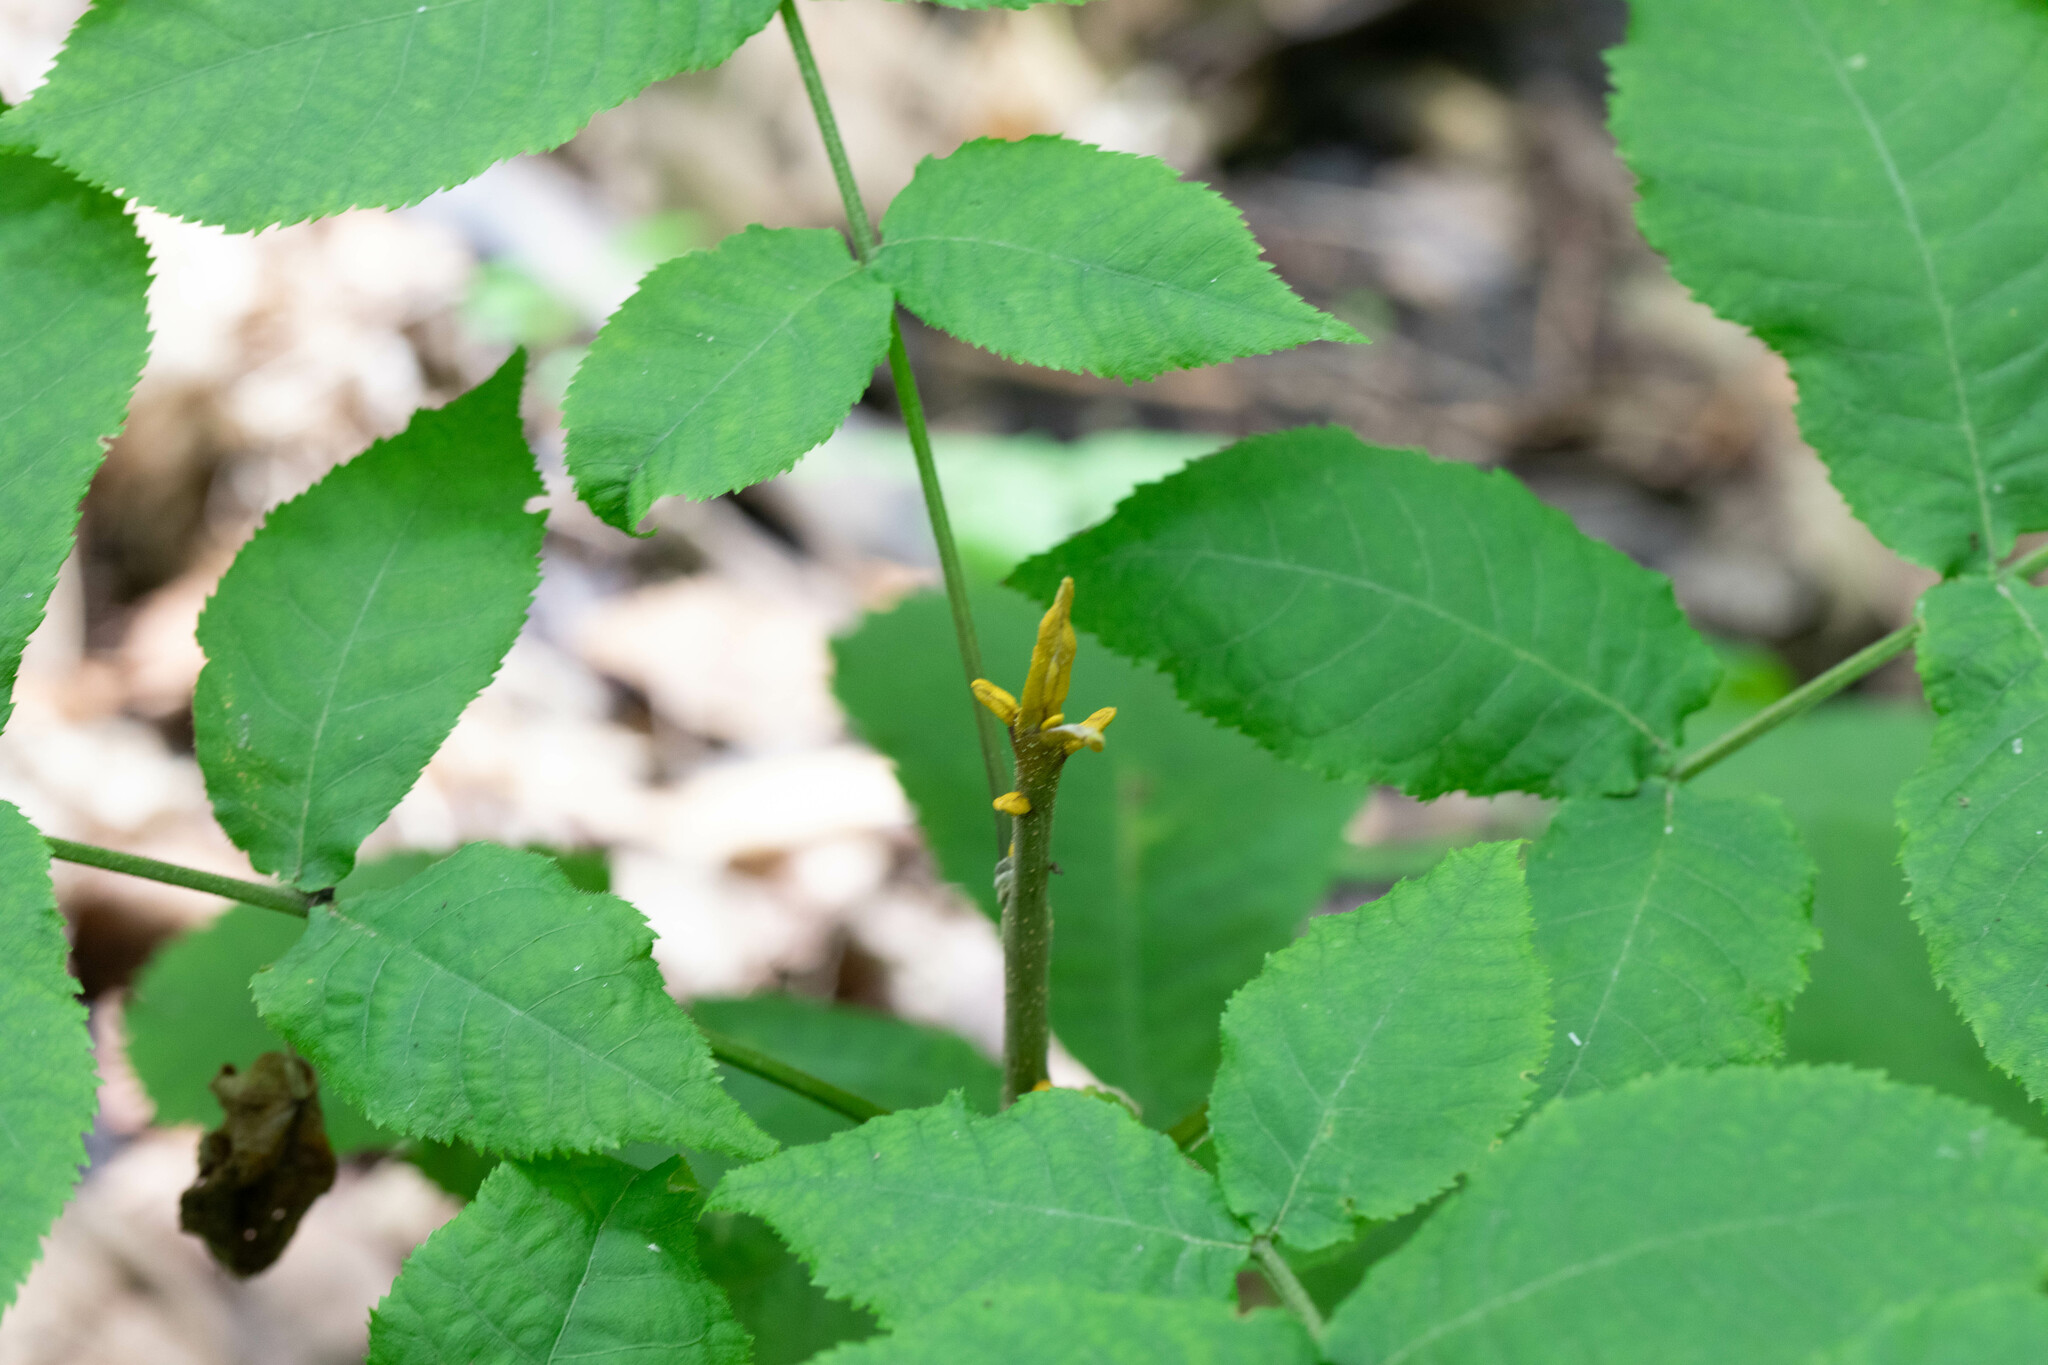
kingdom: Plantae
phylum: Tracheophyta
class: Magnoliopsida
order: Fagales
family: Juglandaceae
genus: Carya
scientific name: Carya cordiformis
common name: Bitternut hickory
